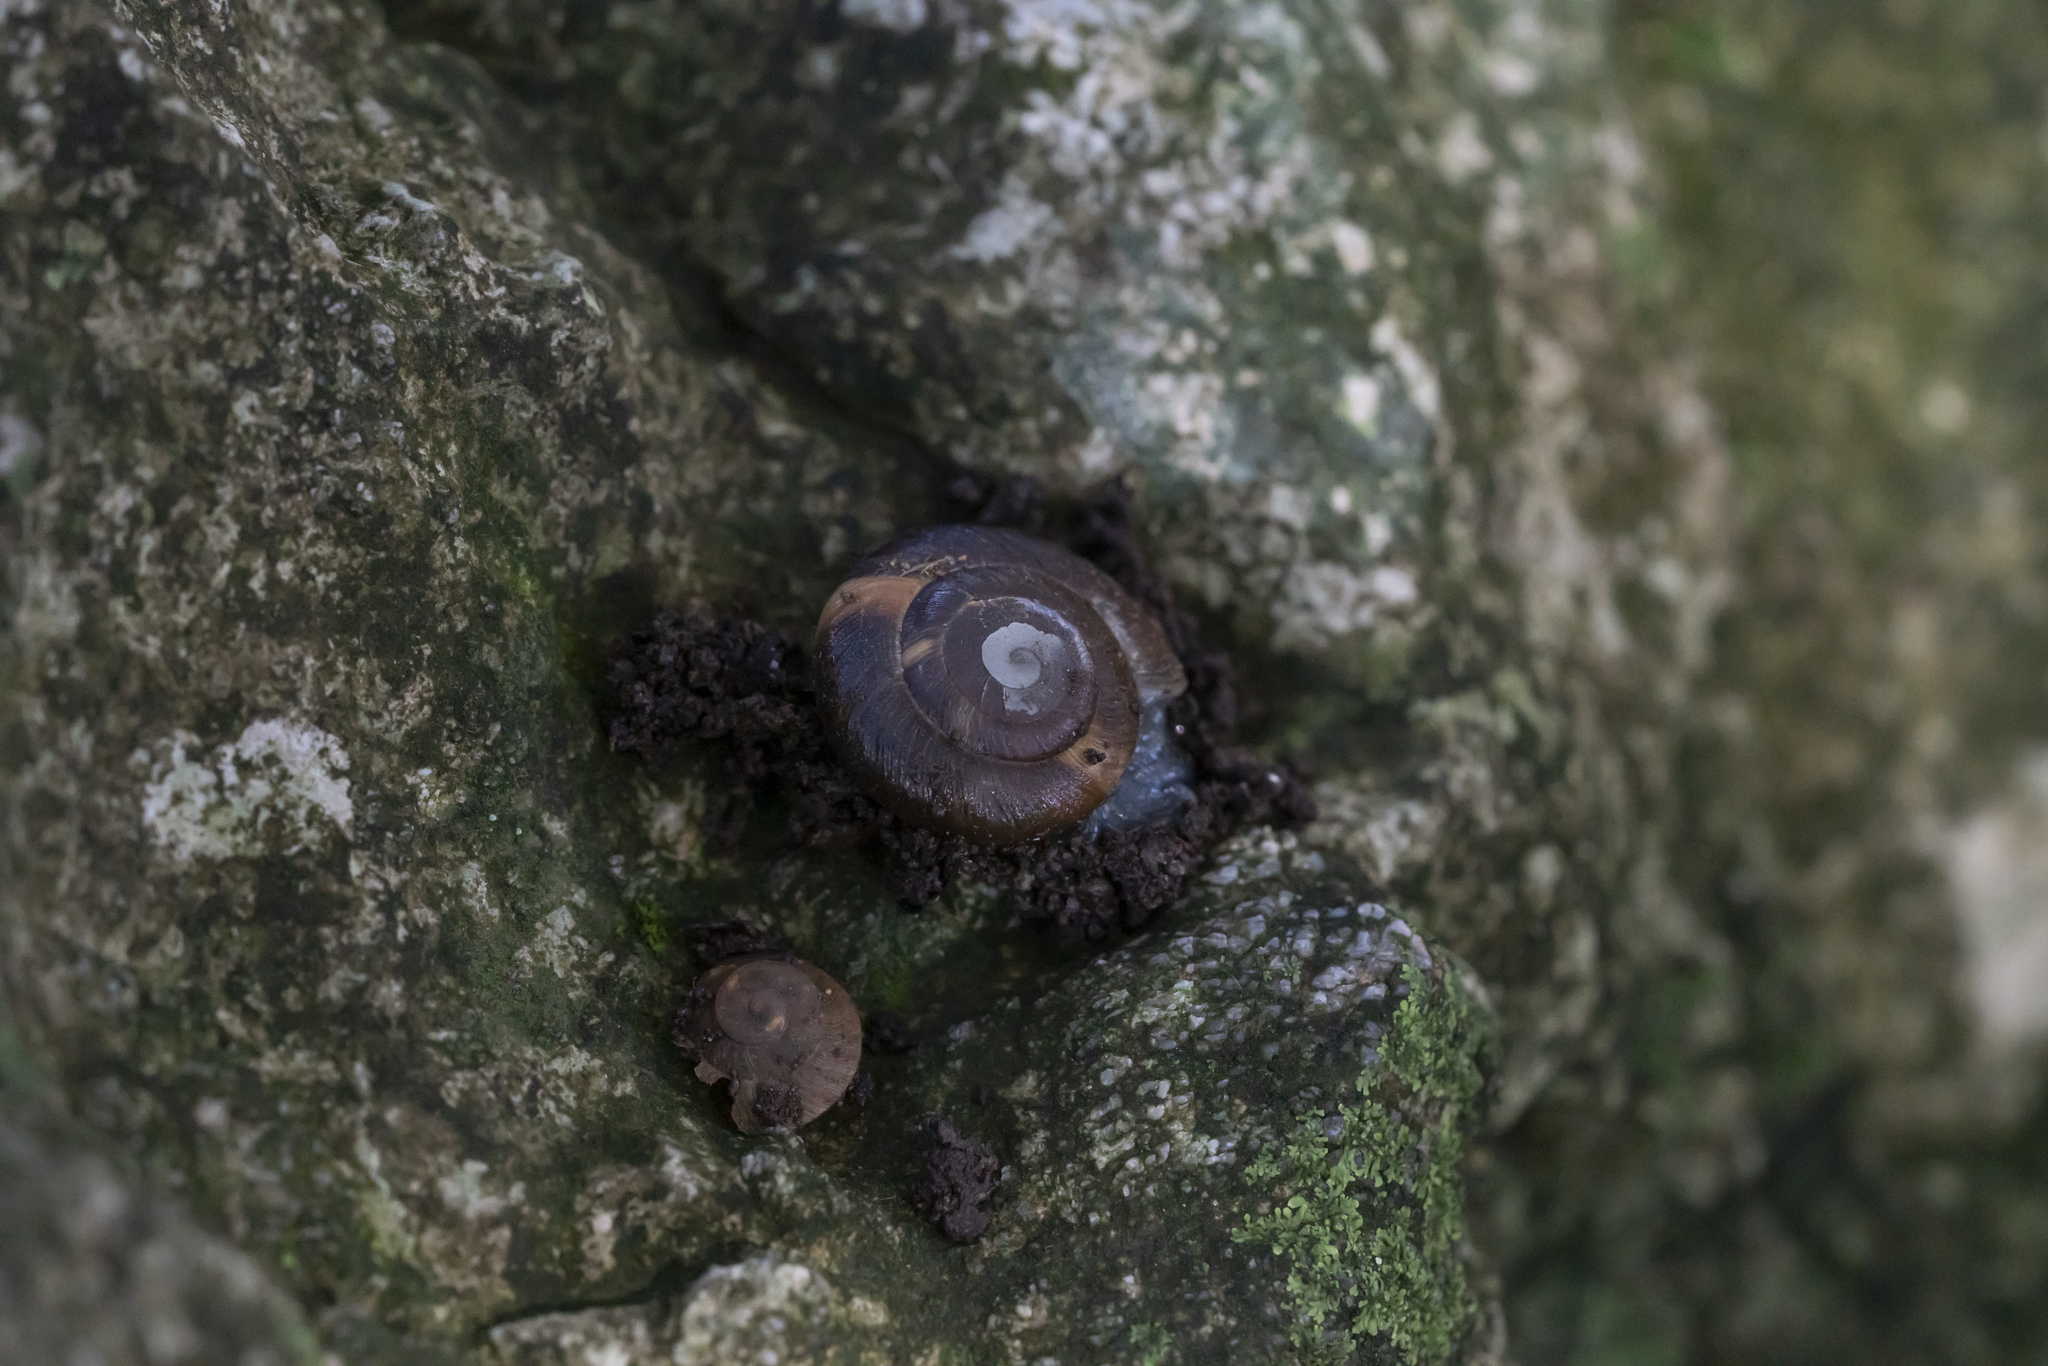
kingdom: Animalia
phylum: Mollusca
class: Gastropoda
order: Stylommatophora
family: Zonitidae
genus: Zonites
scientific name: Zonites festai
